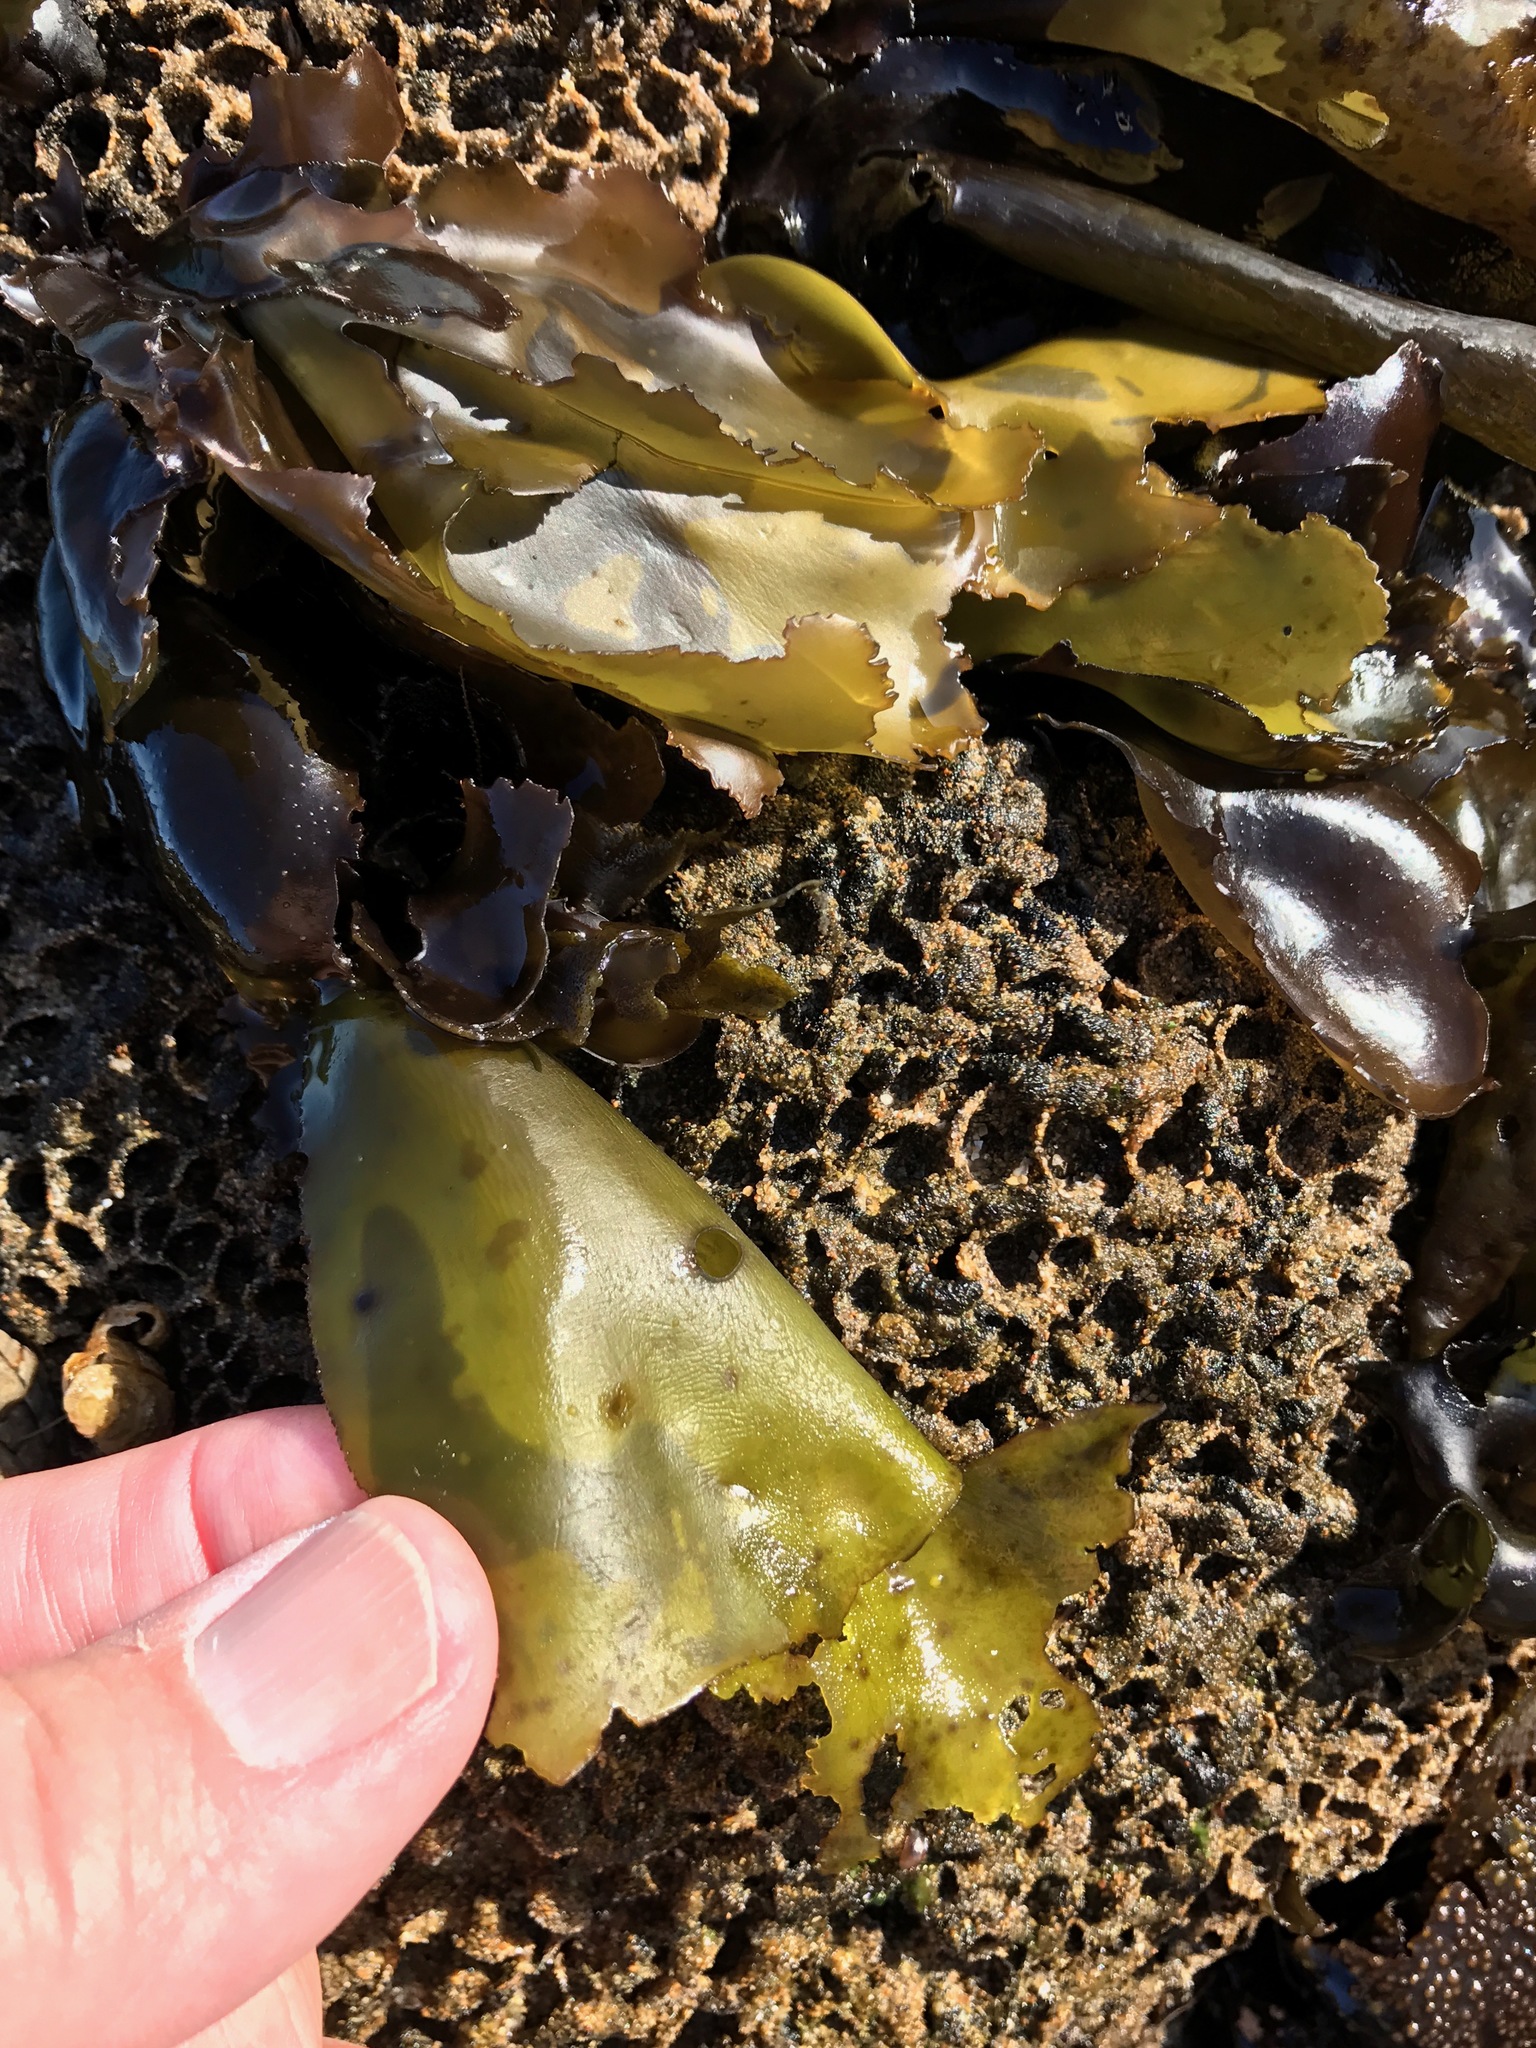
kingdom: Plantae
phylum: Rhodophyta
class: Florideophyceae
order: Gigartinales
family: Gigartinaceae
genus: Mazzaella
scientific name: Mazzaella flaccida
